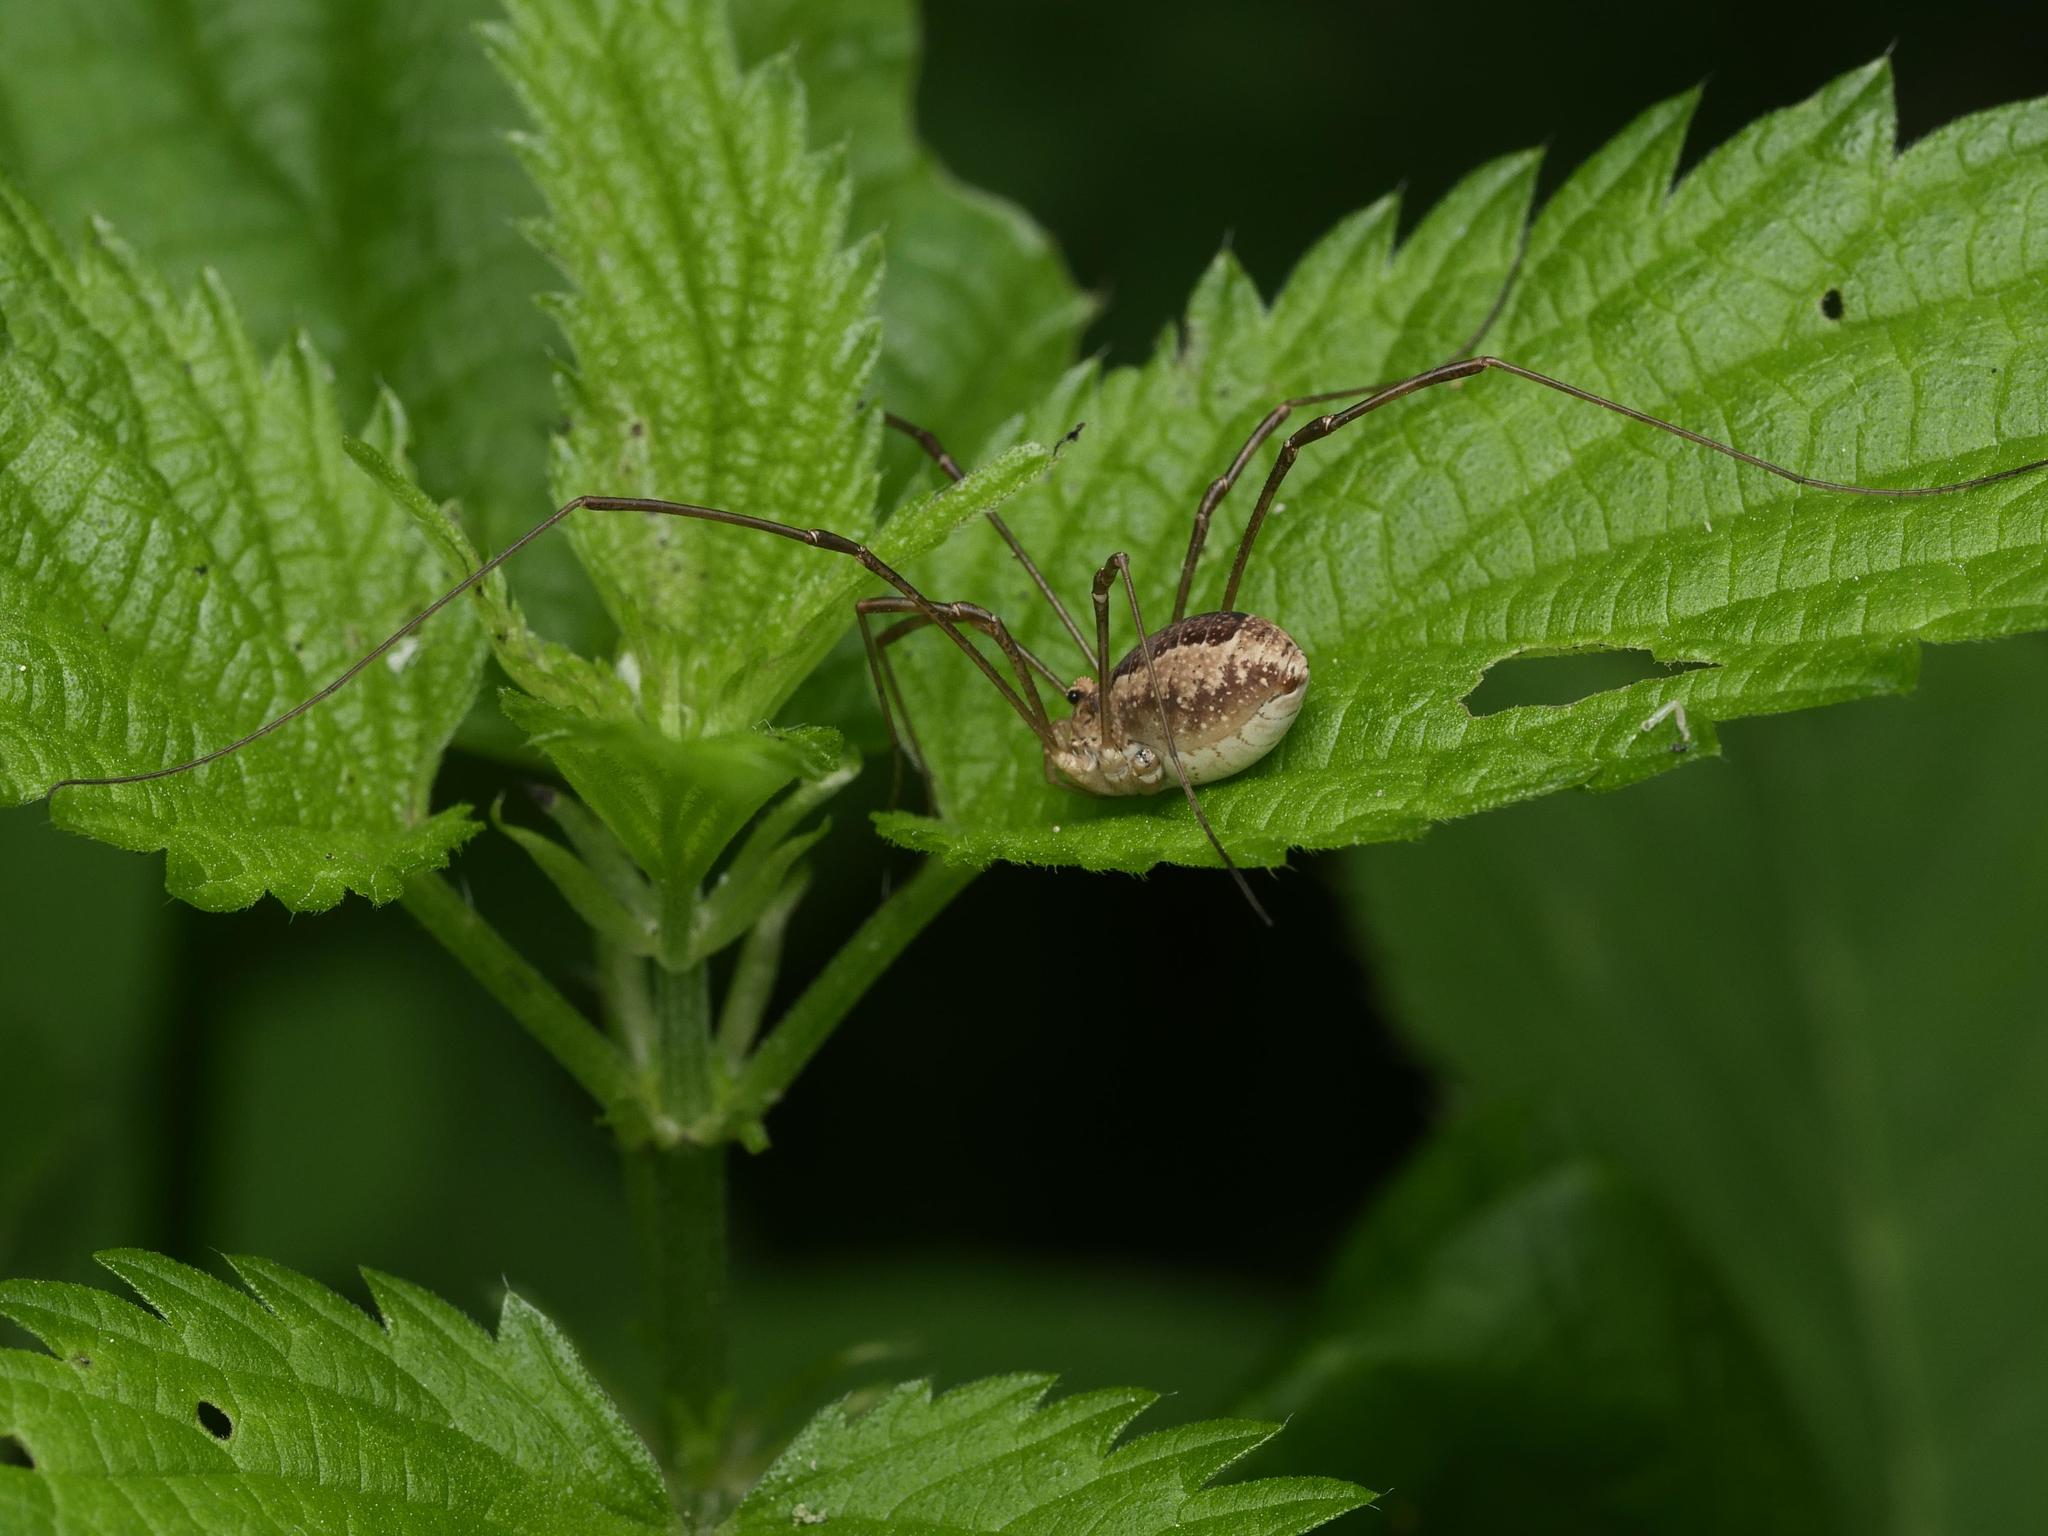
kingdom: Animalia
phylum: Arthropoda
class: Arachnida
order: Opiliones
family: Phalangiidae
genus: Rilaena
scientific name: Rilaena triangularis
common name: Spring harvestman
